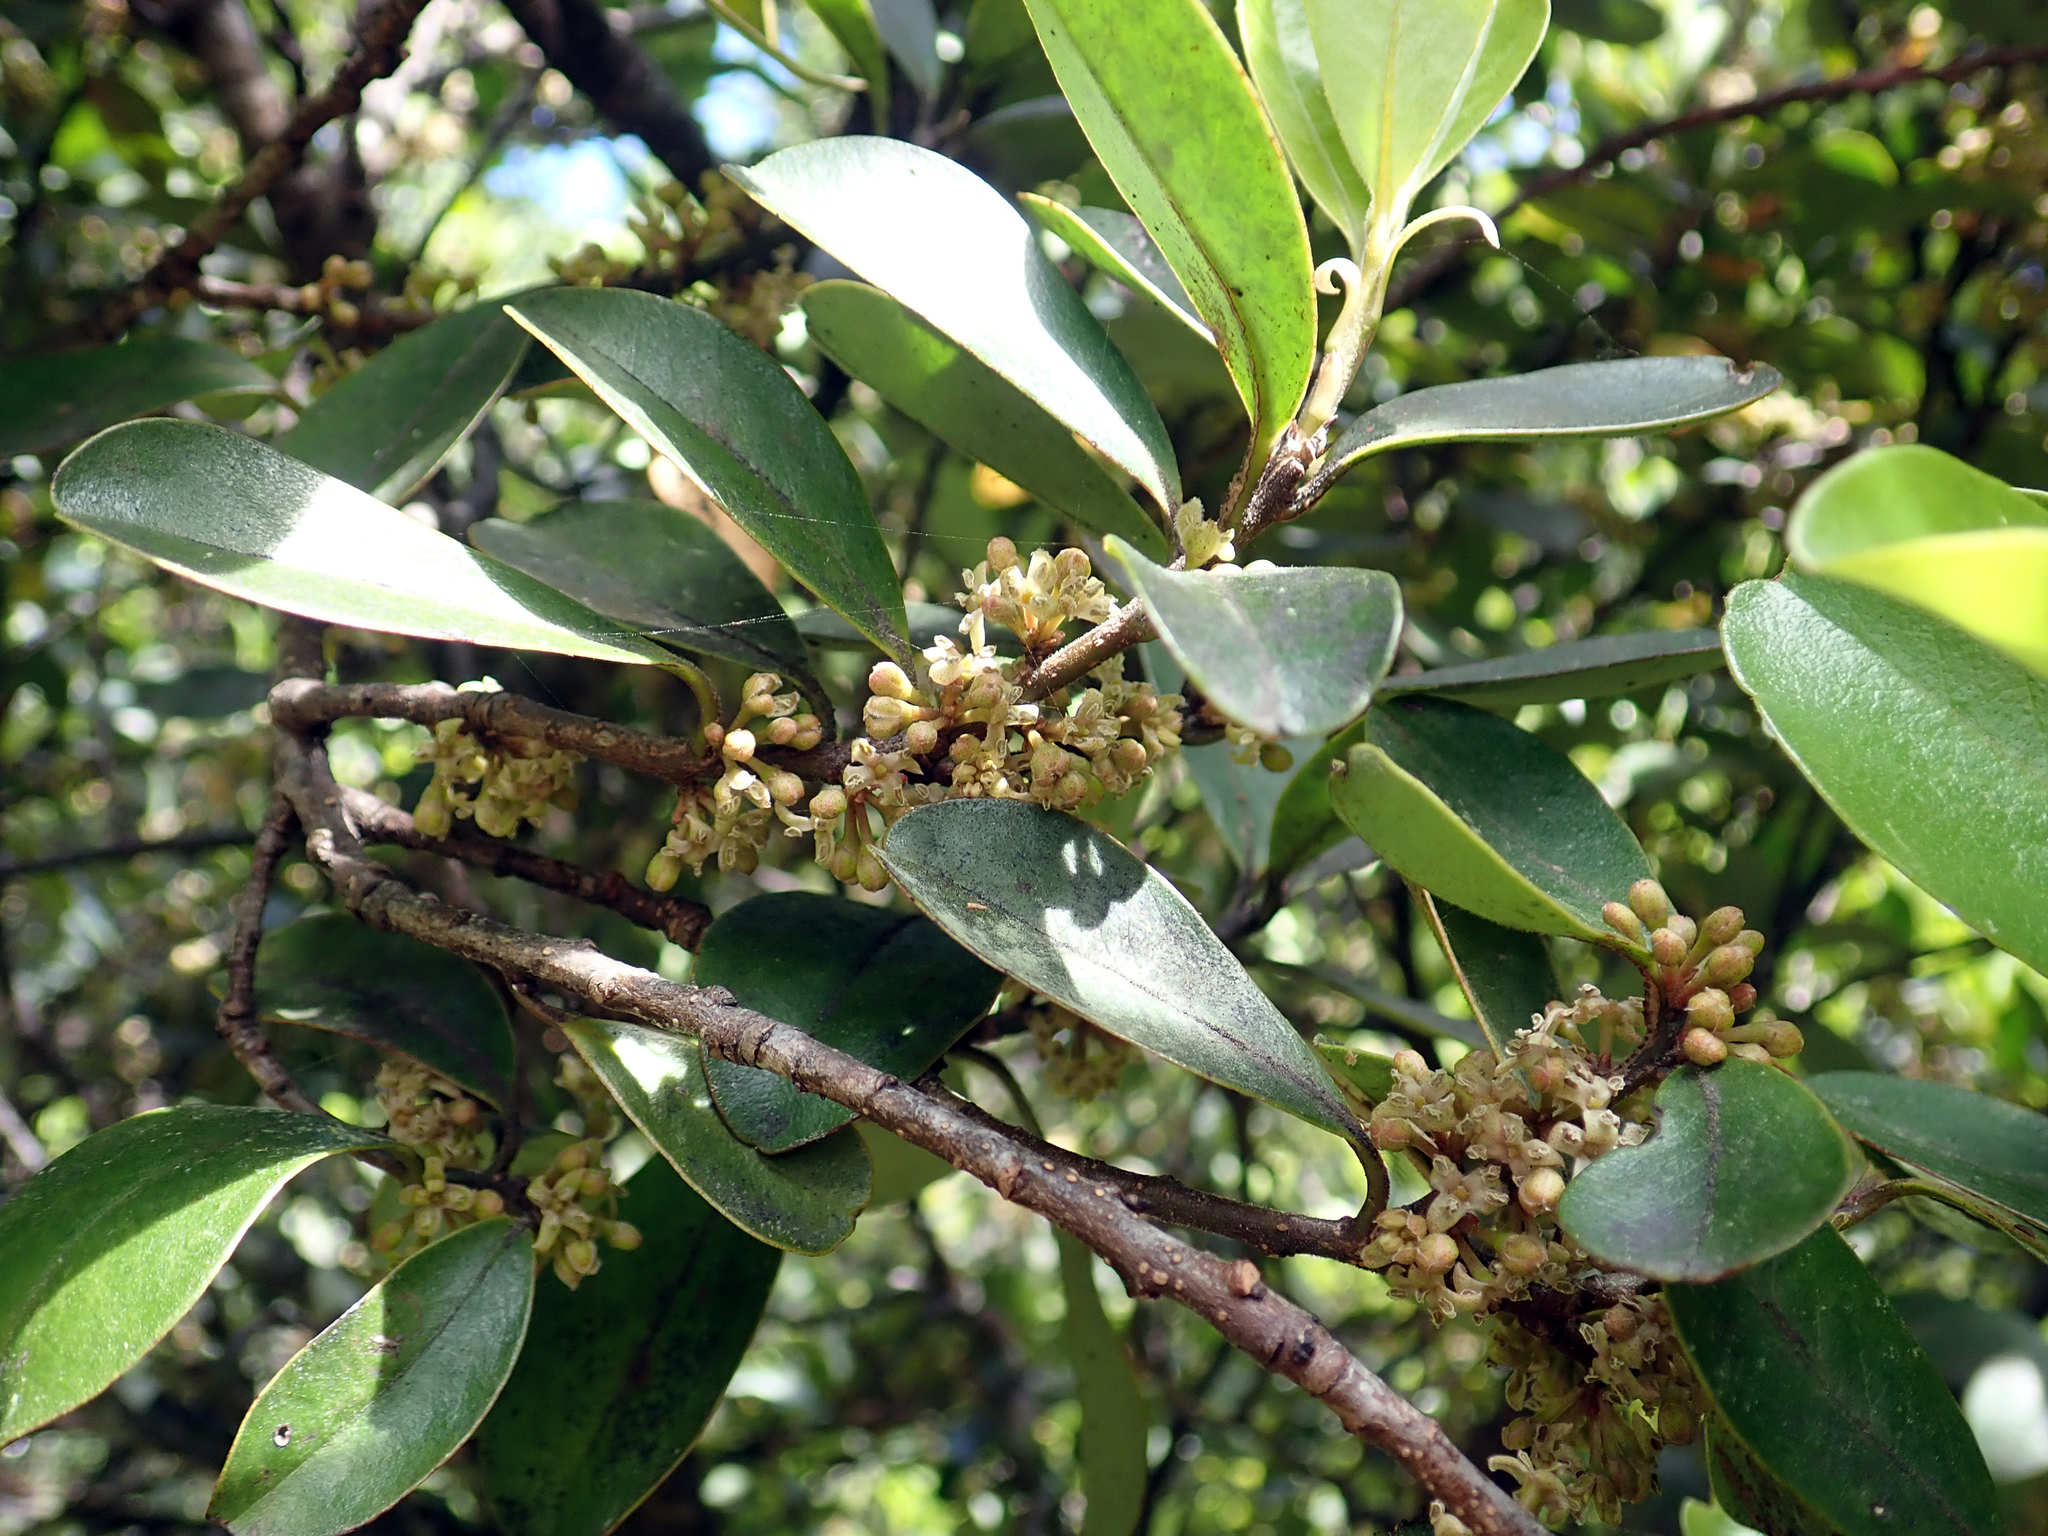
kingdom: Plantae
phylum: Tracheophyta
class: Magnoliopsida
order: Ericales
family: Primulaceae
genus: Myrsine
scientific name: Myrsine chathamica
